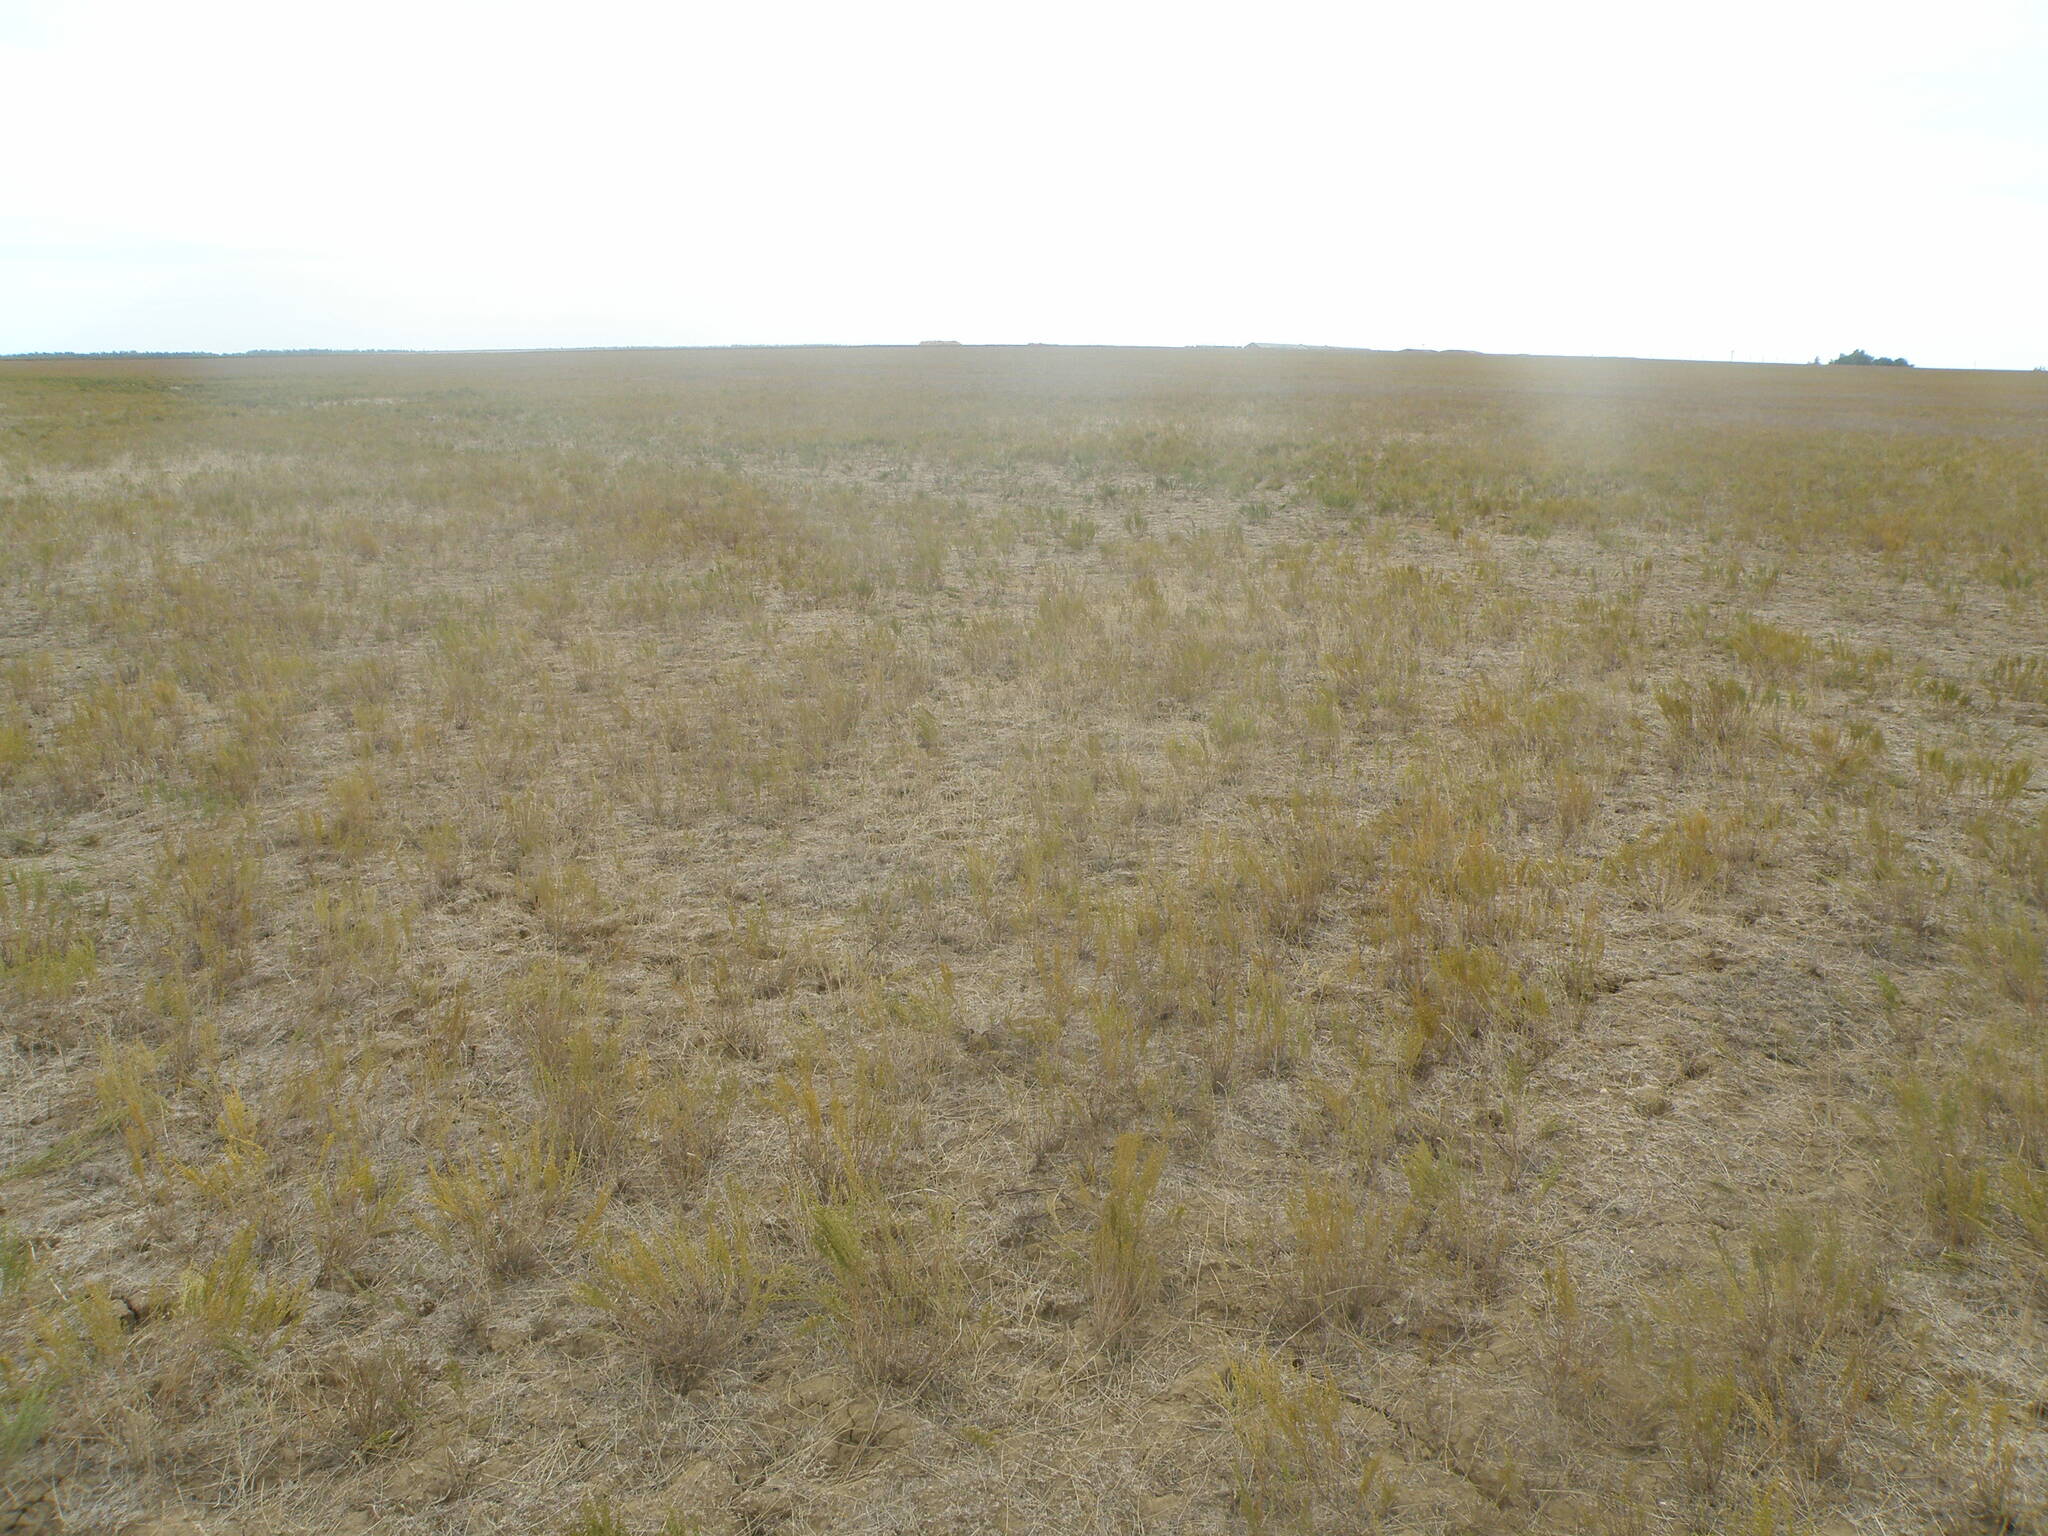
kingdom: Plantae
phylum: Tracheophyta
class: Magnoliopsida
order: Asterales
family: Asteraceae
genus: Artemisia
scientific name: Artemisia pauciflora
